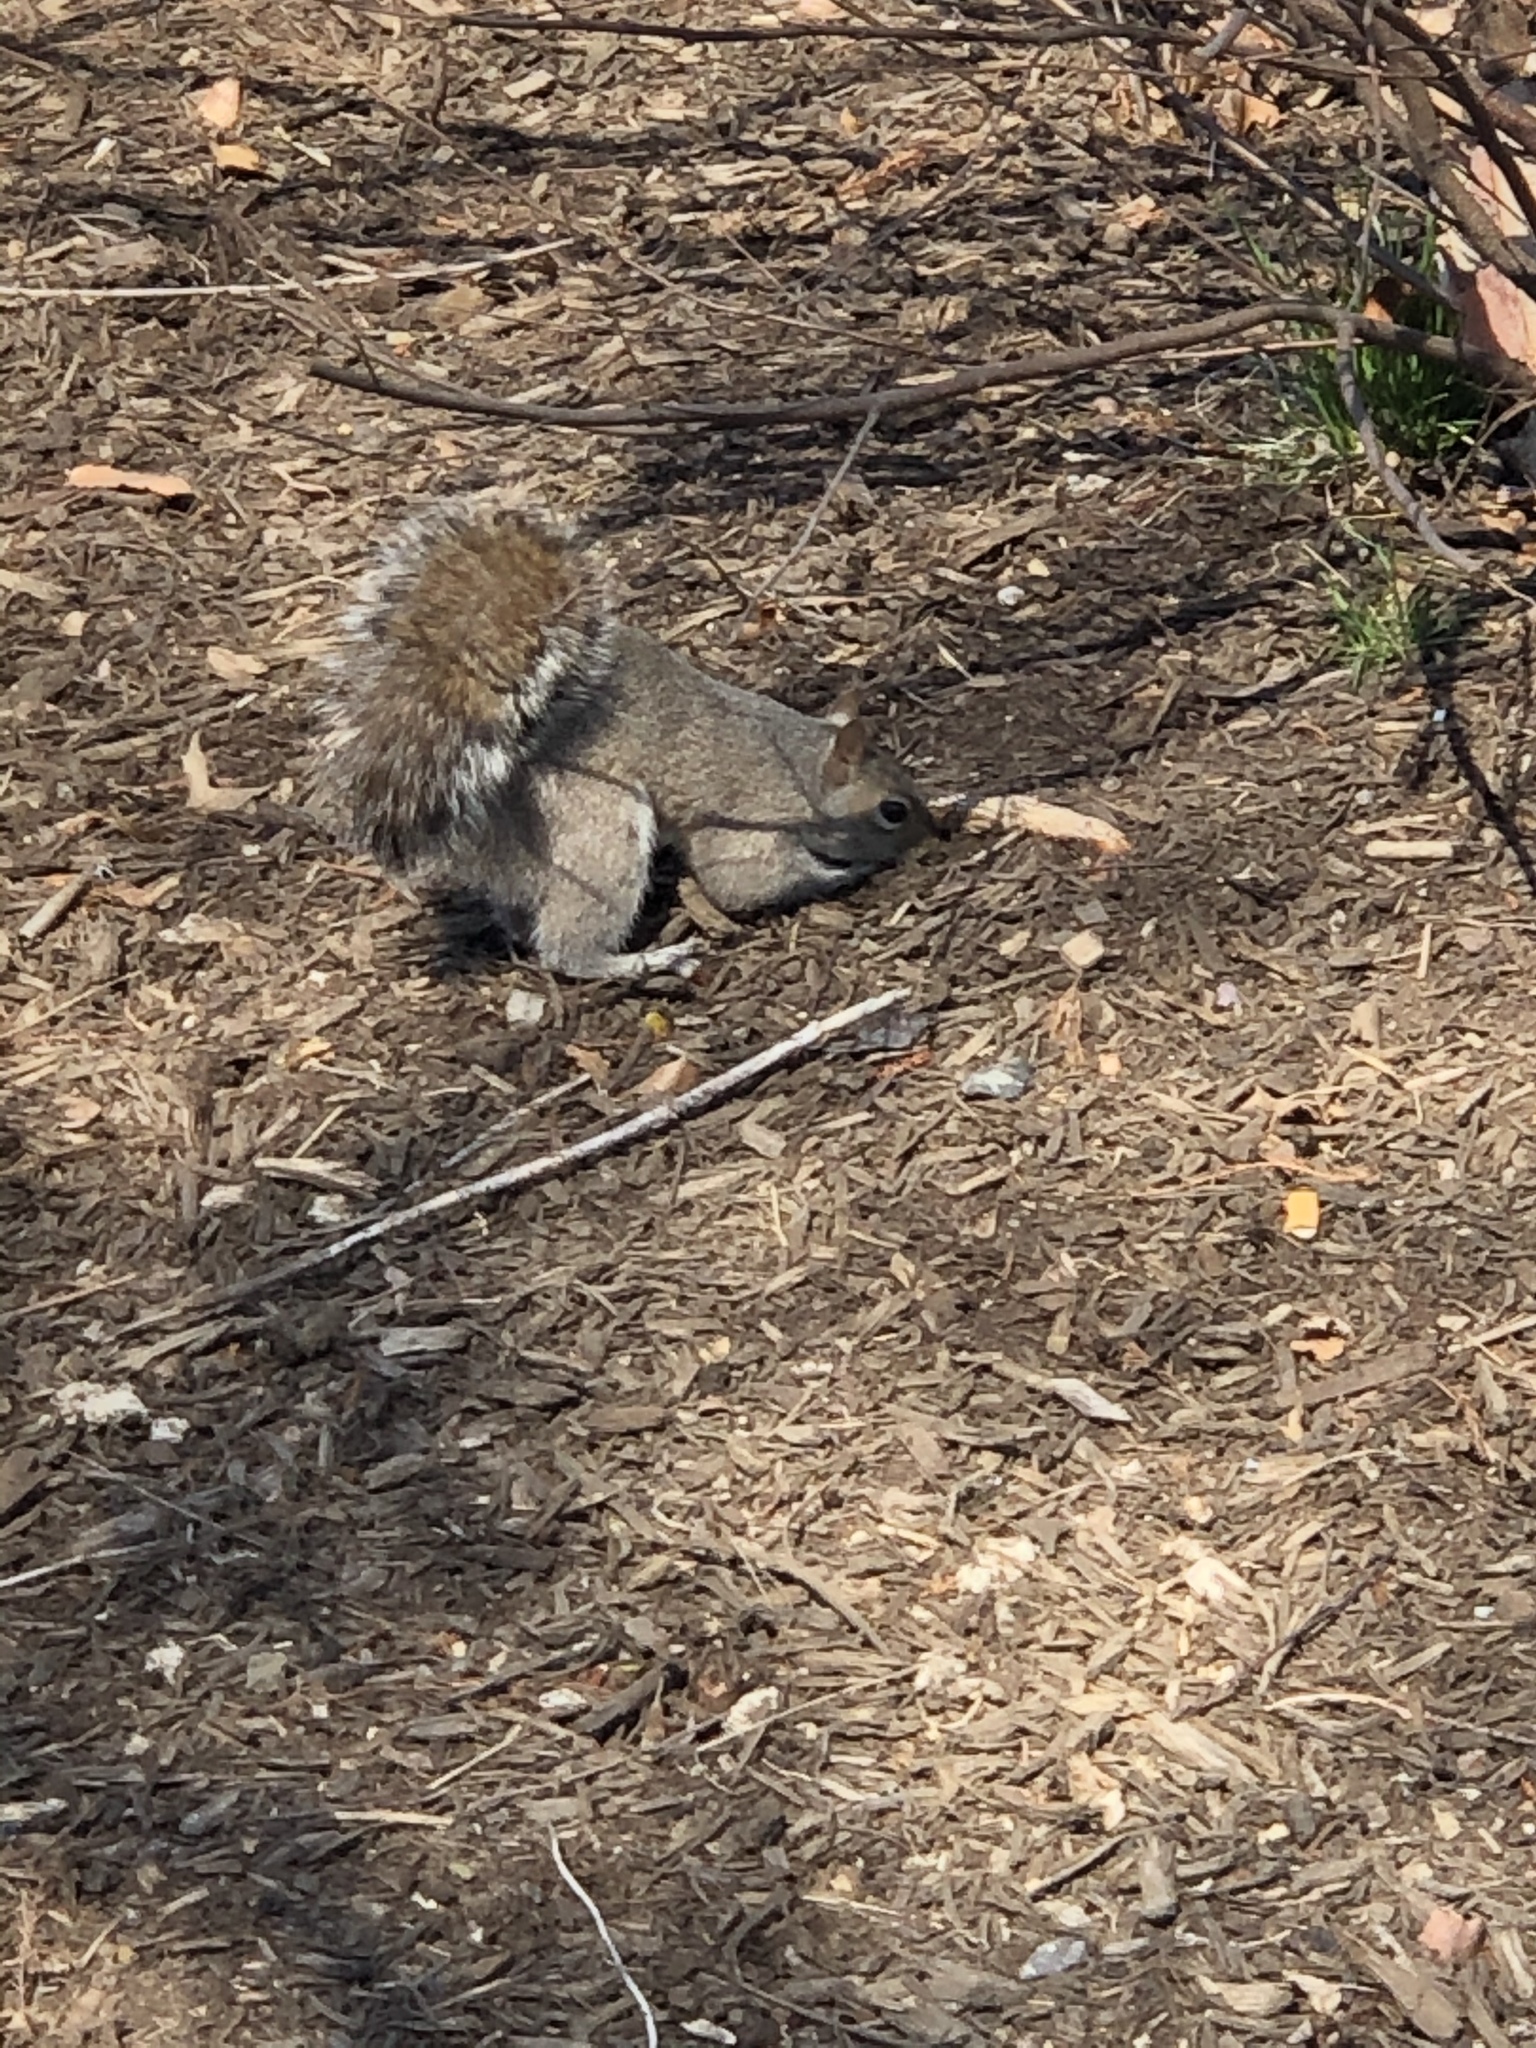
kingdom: Animalia
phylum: Chordata
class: Mammalia
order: Rodentia
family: Sciuridae
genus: Sciurus
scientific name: Sciurus carolinensis
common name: Eastern gray squirrel
